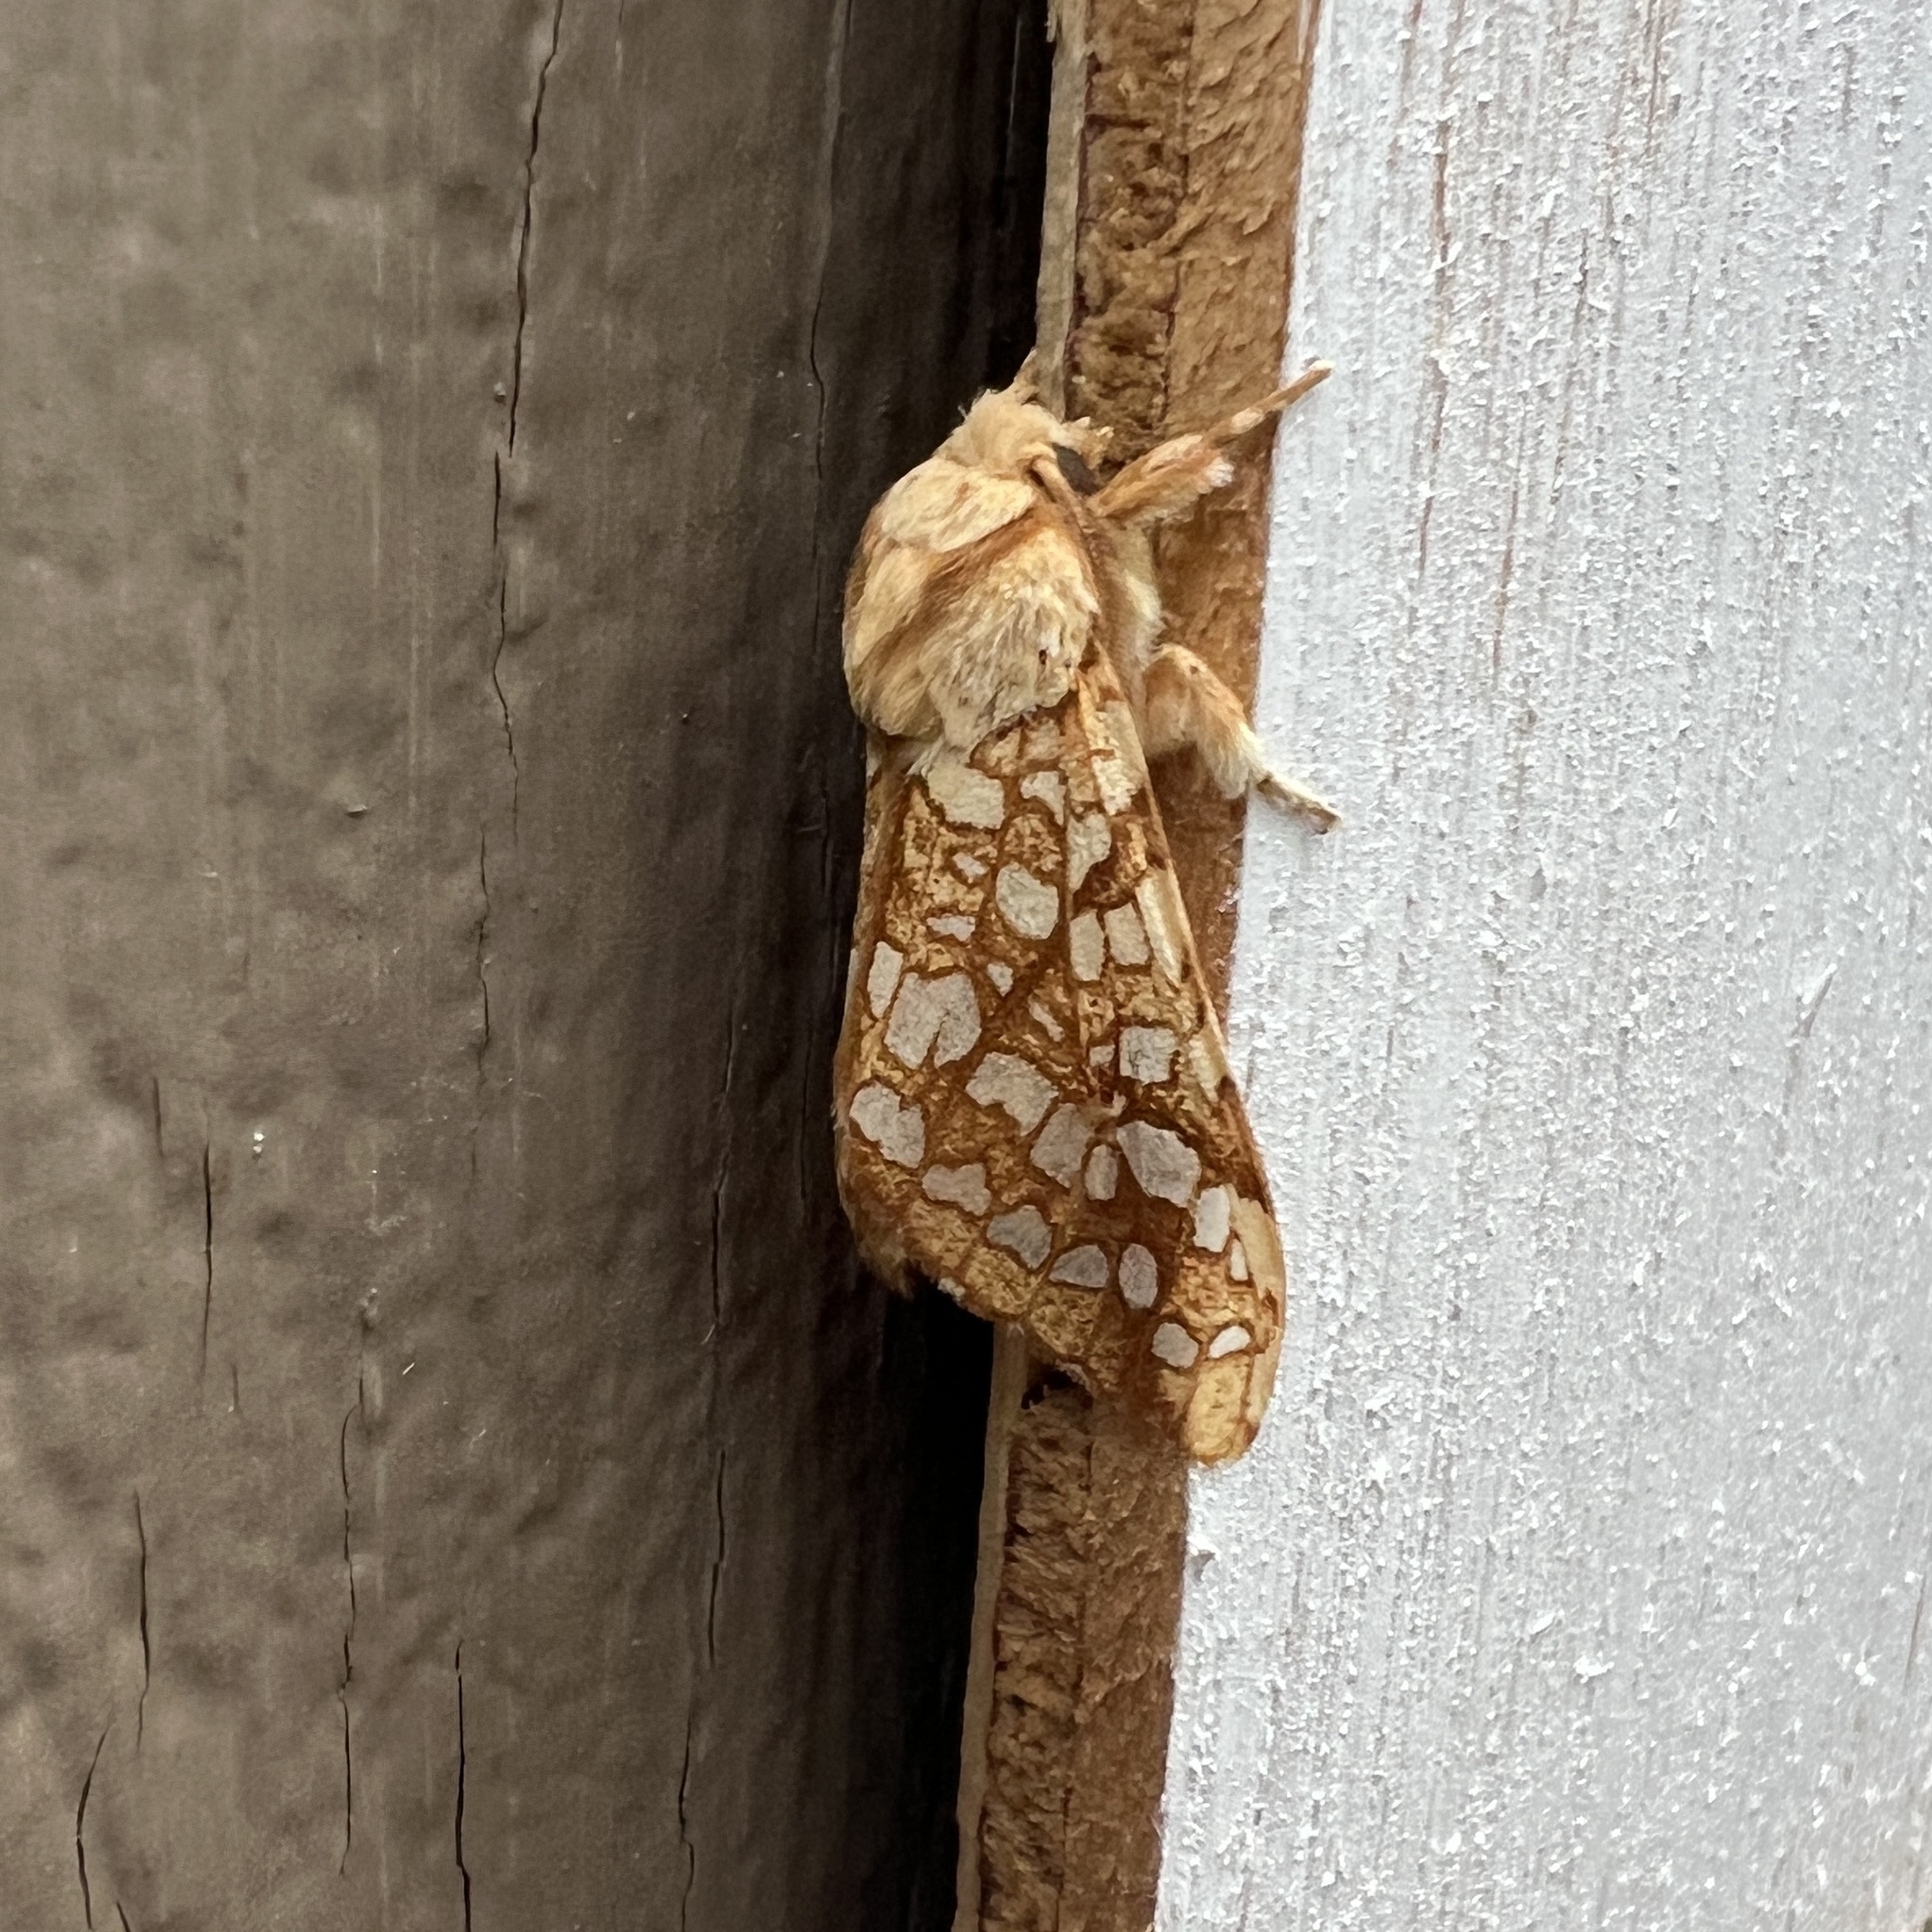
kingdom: Animalia
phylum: Arthropoda
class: Insecta
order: Lepidoptera
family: Erebidae
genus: Lophocampa
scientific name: Lophocampa caryae
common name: Hickory tussock moth
